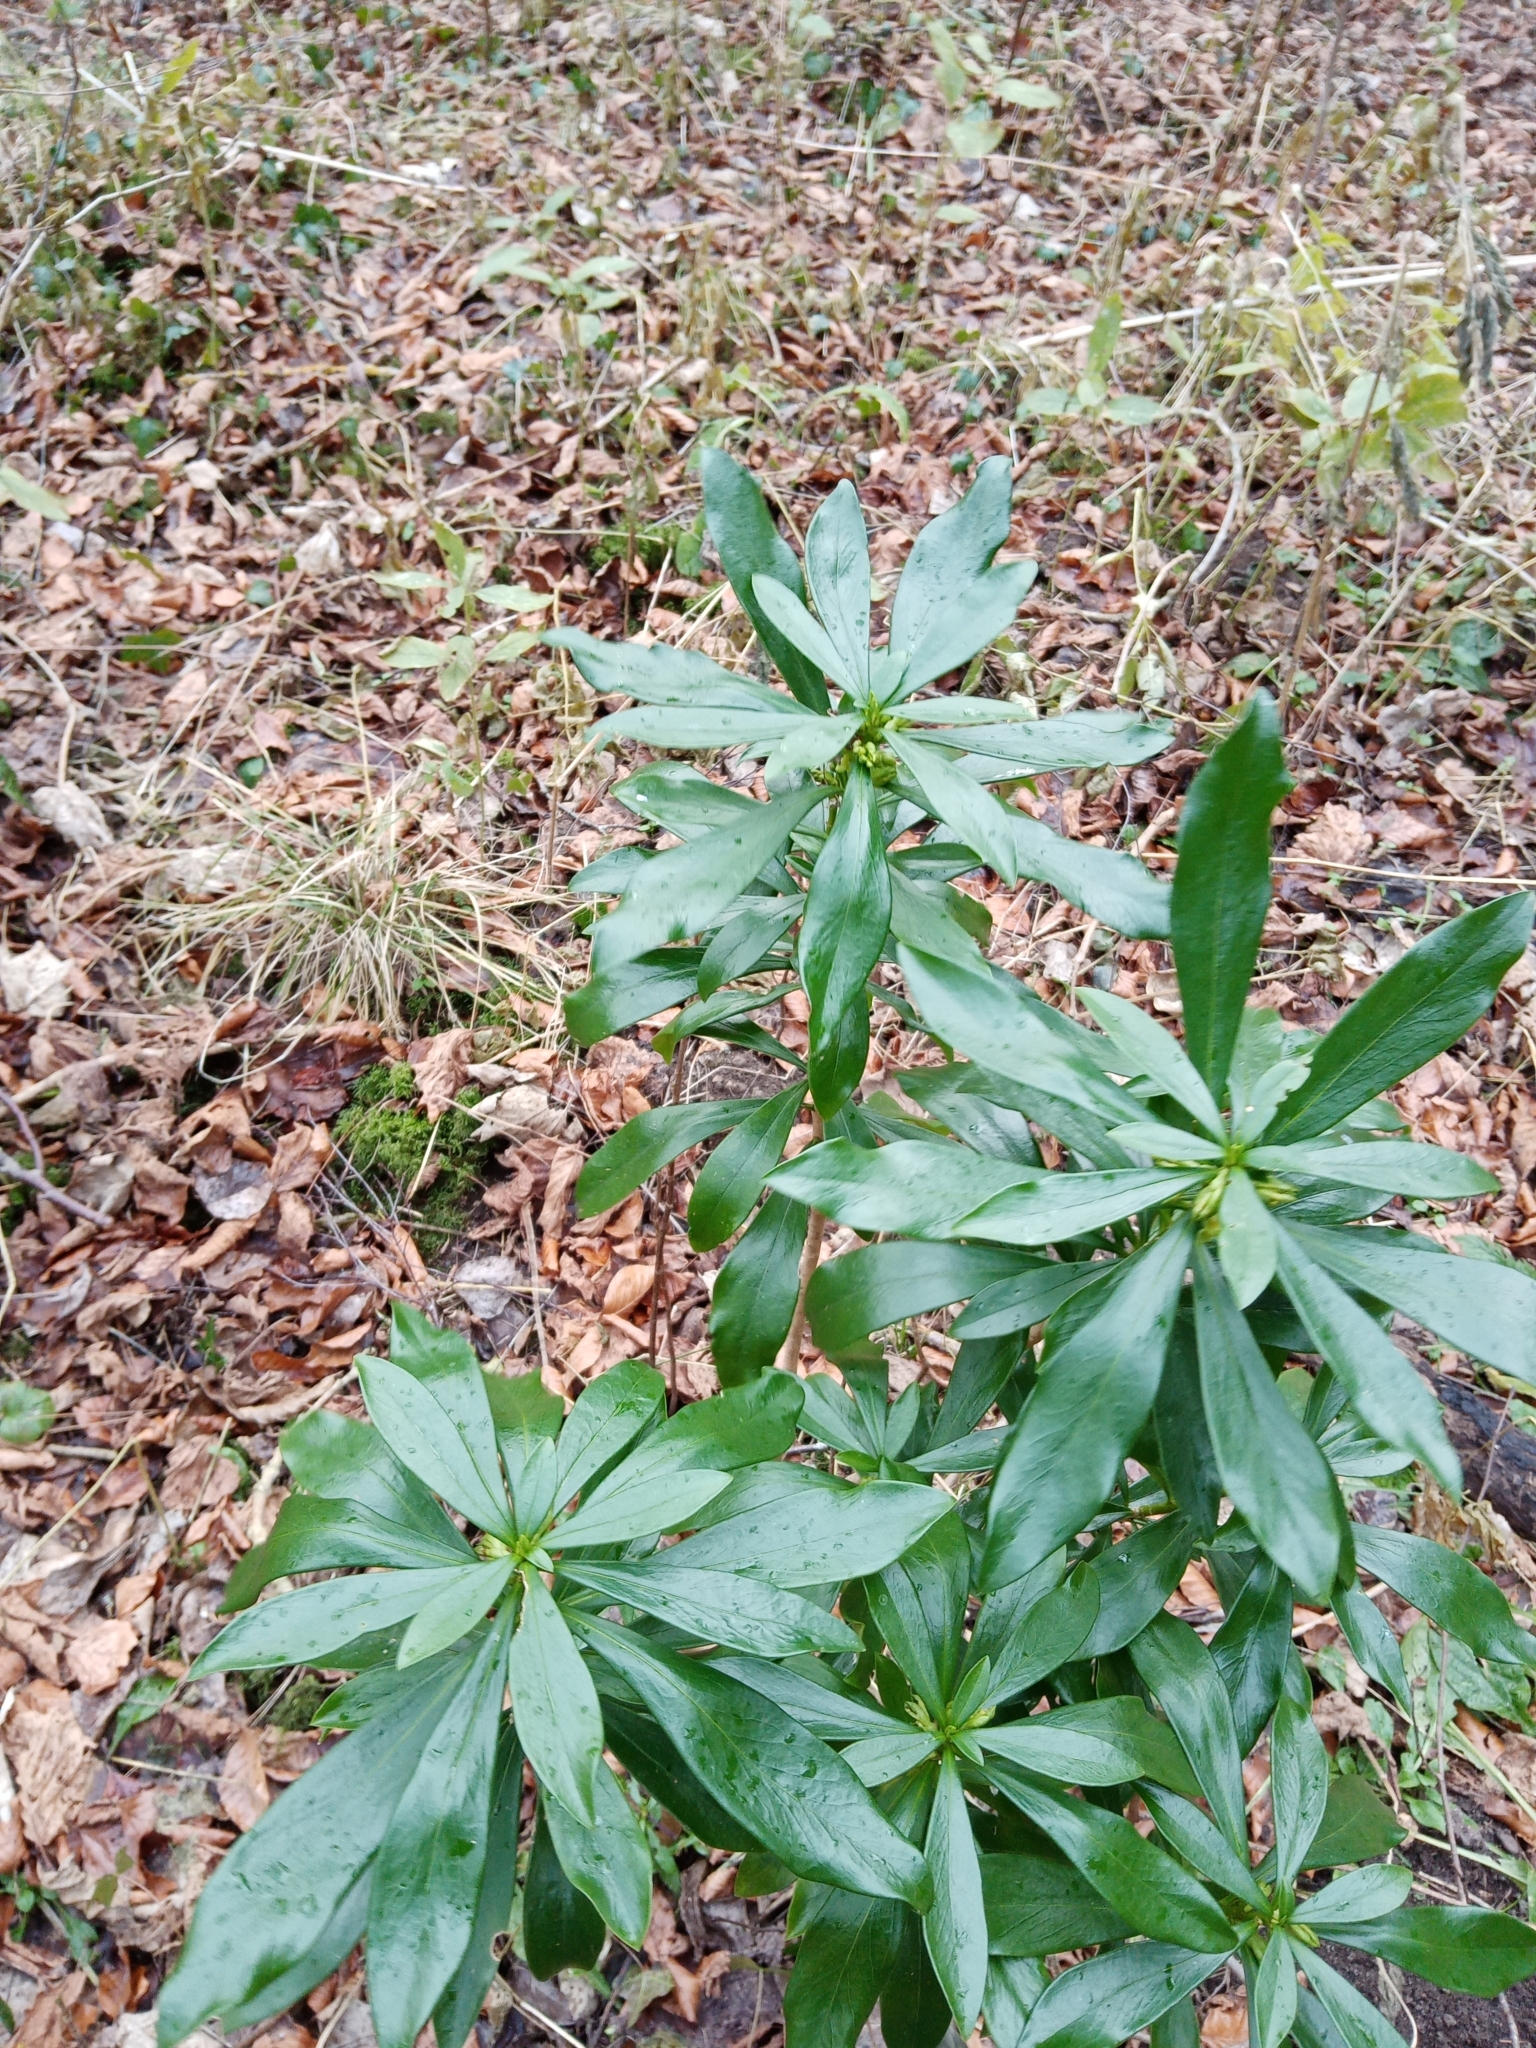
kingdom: Plantae
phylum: Tracheophyta
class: Magnoliopsida
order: Malvales
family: Thymelaeaceae
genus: Daphne
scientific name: Daphne laureola
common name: Spurge-laurel
